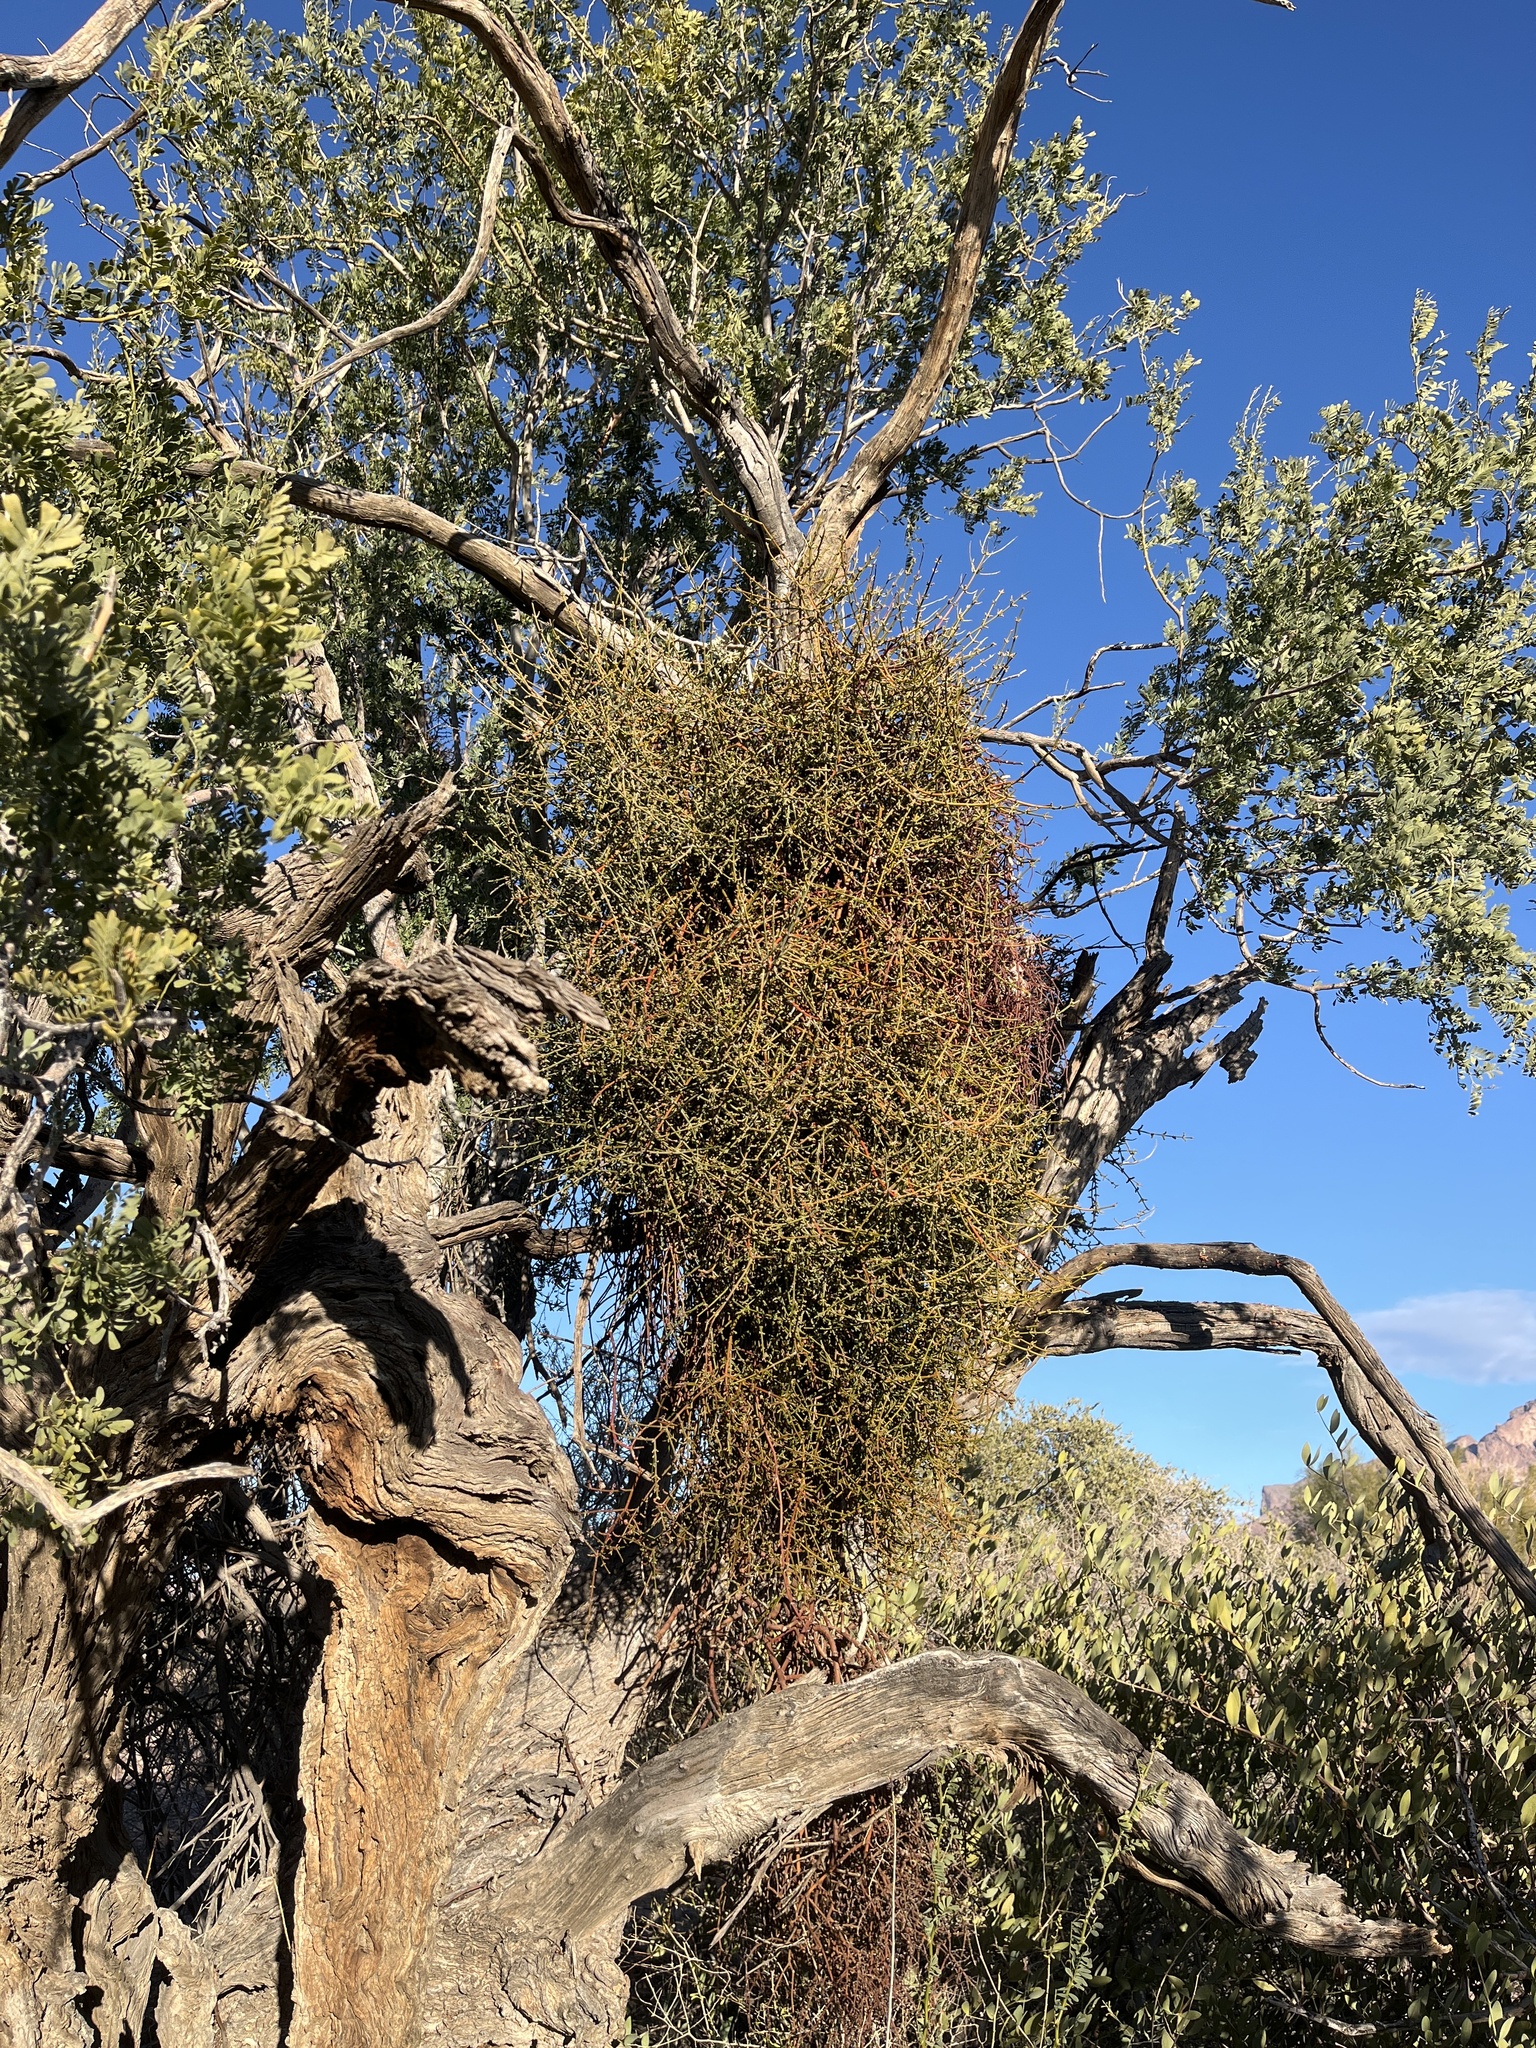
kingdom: Plantae
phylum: Tracheophyta
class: Magnoliopsida
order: Santalales
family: Viscaceae
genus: Phoradendron
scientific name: Phoradendron californicum
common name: Acacia mistletoe
